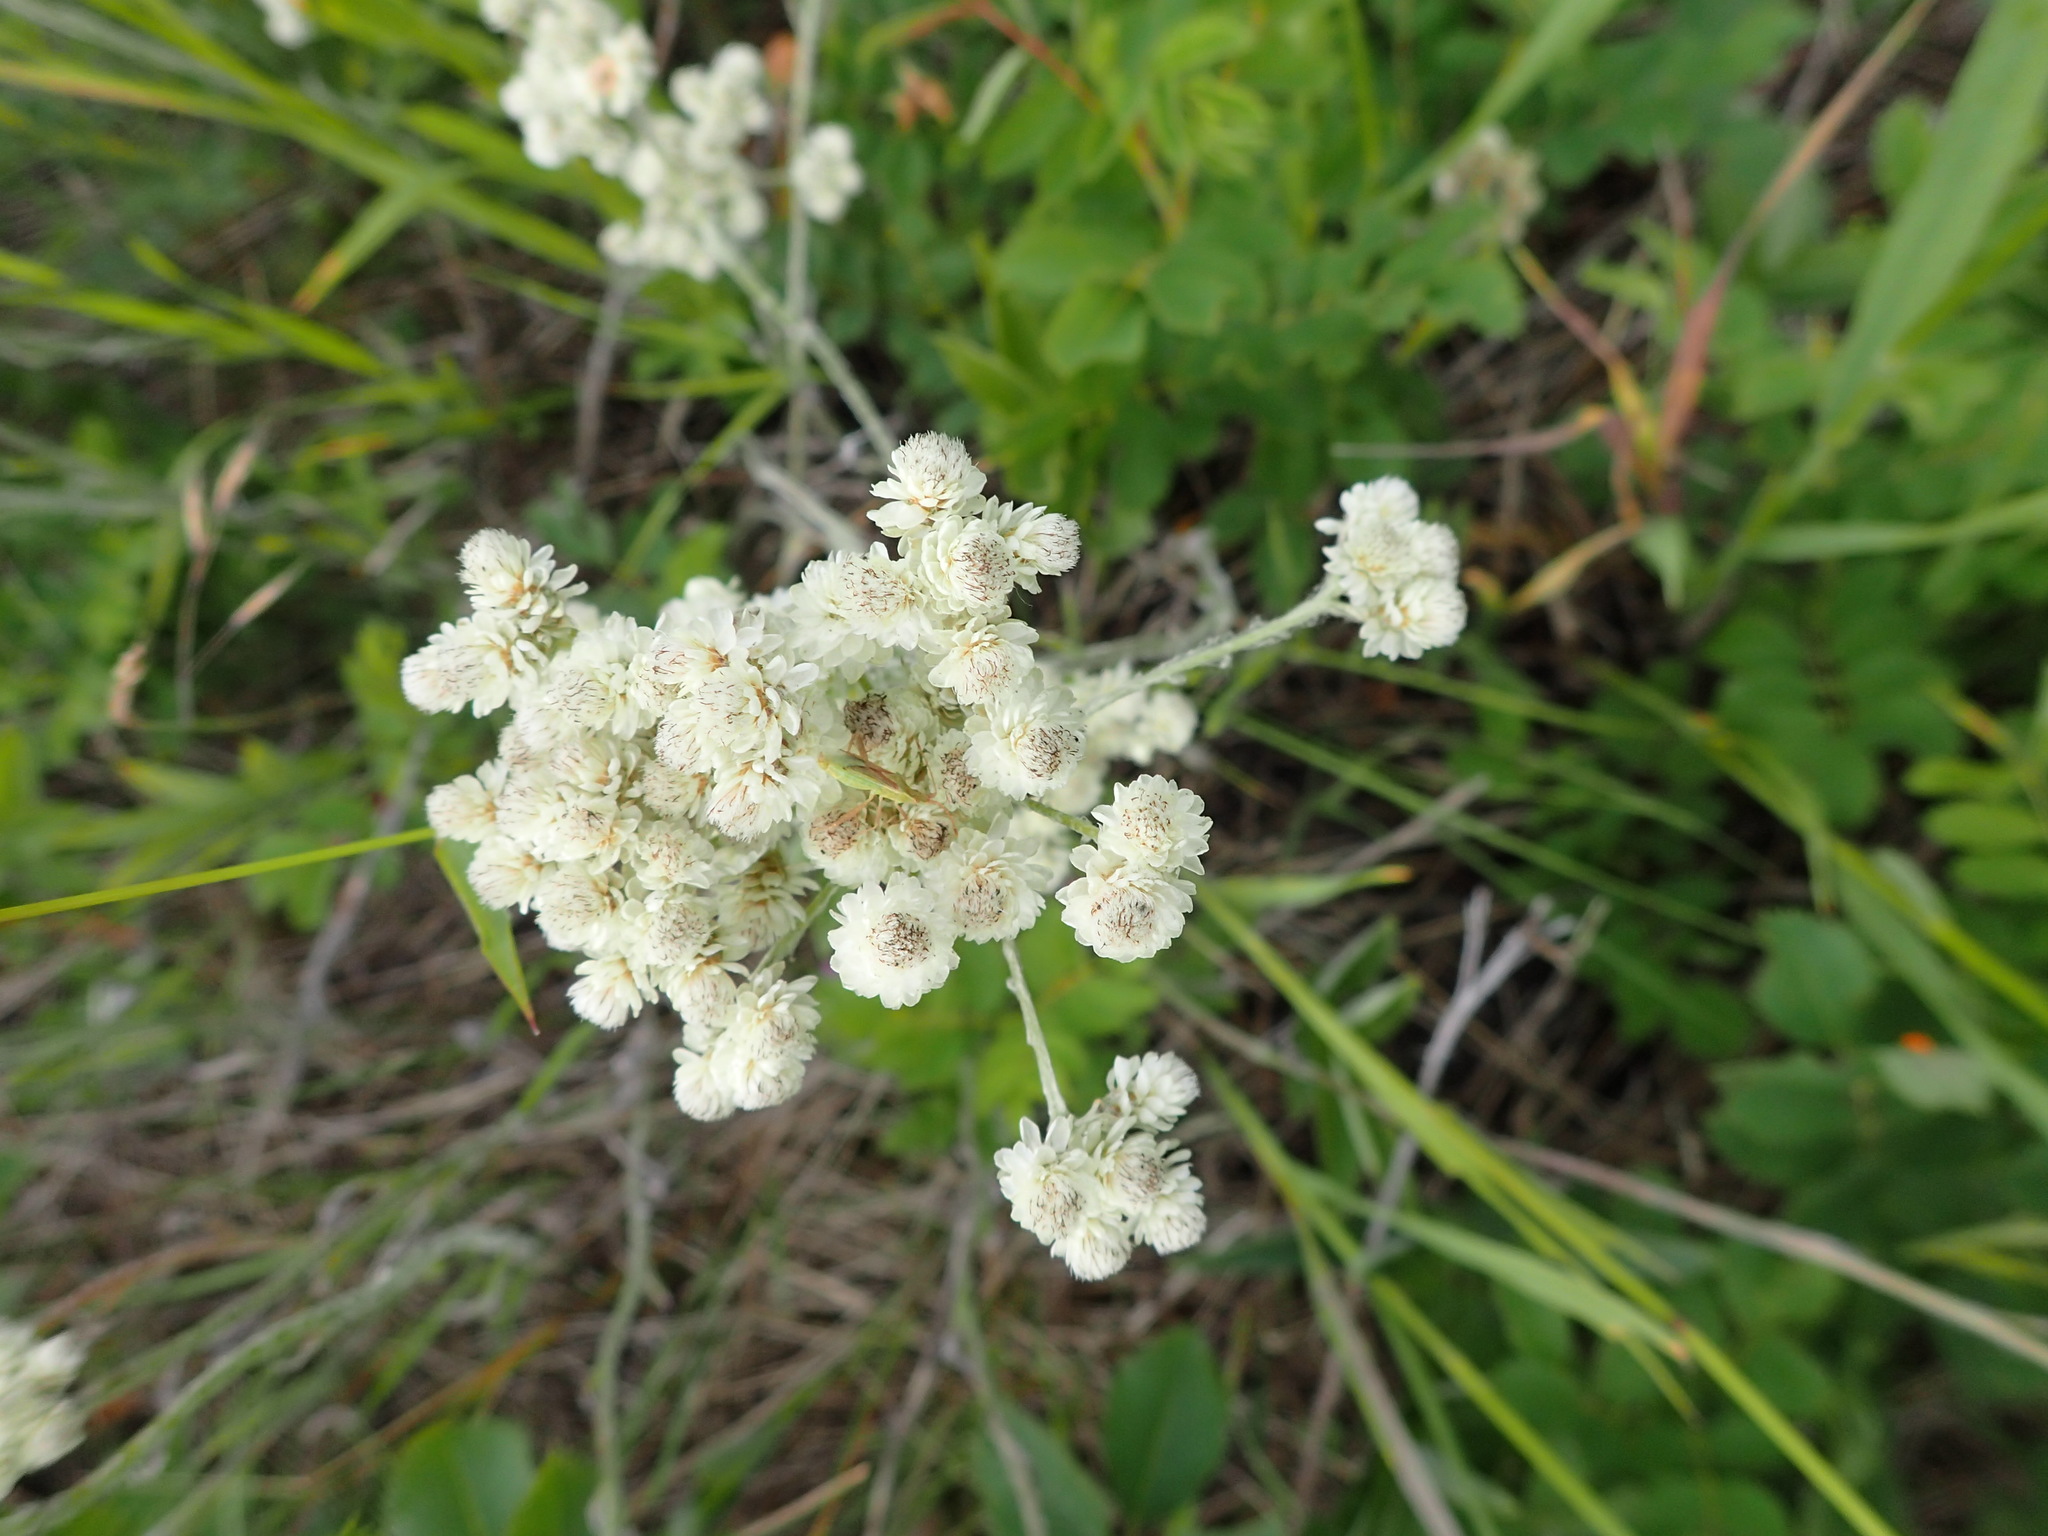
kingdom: Plantae
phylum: Tracheophyta
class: Magnoliopsida
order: Asterales
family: Asteraceae
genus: Antennaria
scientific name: Antennaria anaphaloides
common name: Tall pussytoes
